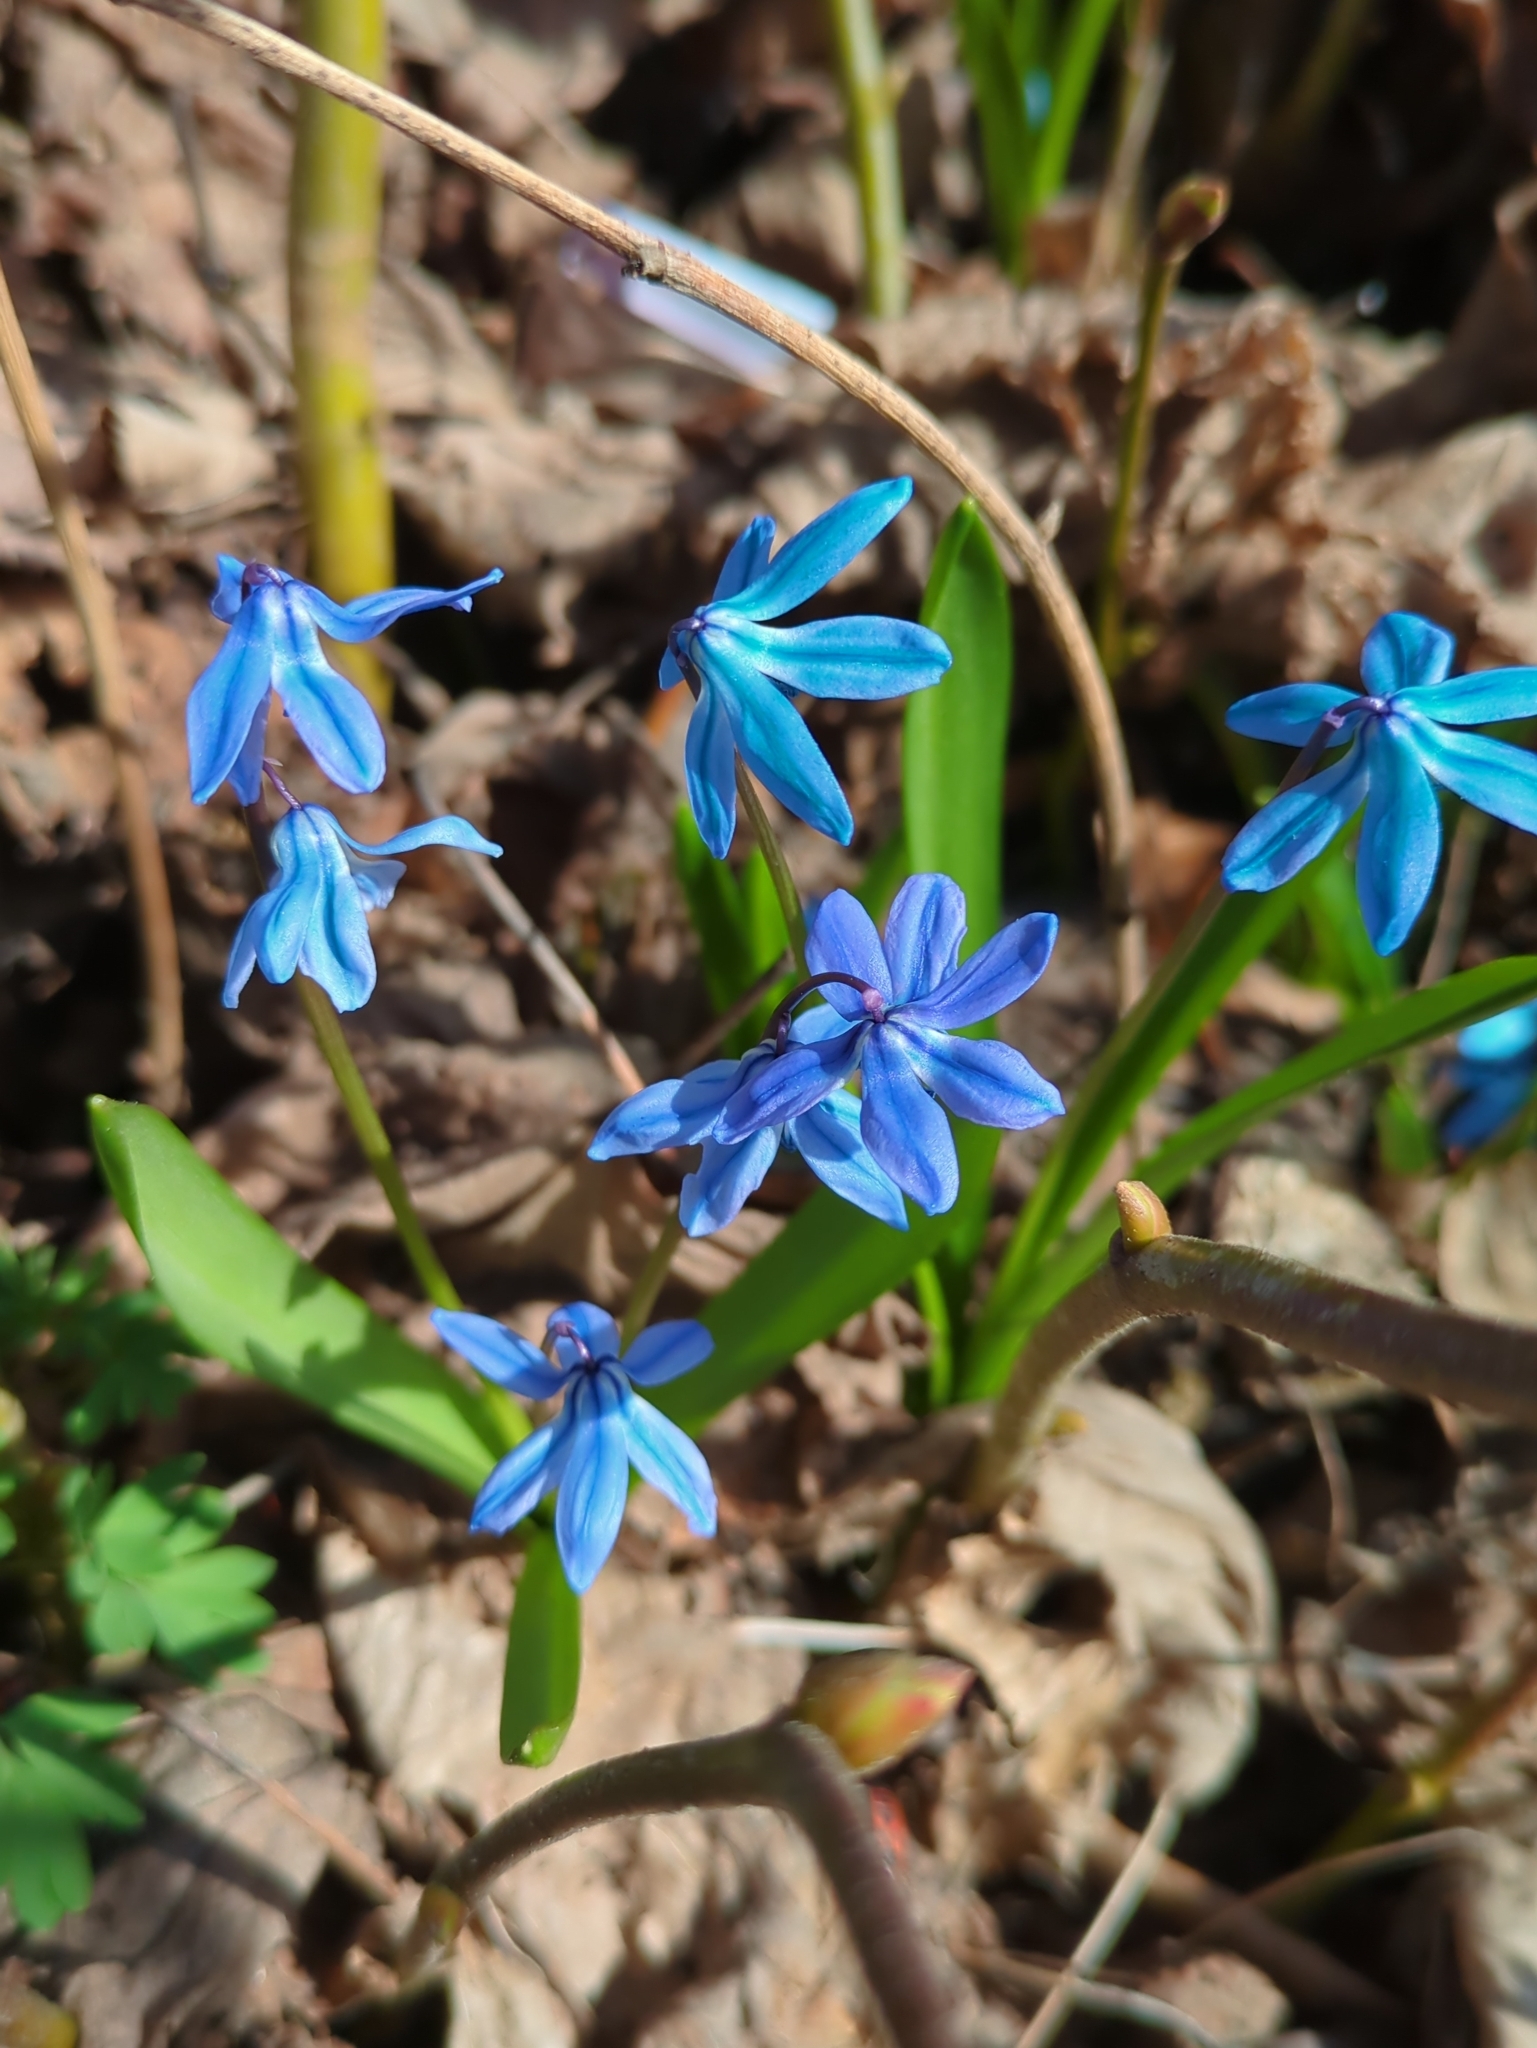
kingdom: Plantae
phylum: Tracheophyta
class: Liliopsida
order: Asparagales
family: Asparagaceae
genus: Scilla
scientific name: Scilla siberica
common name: Siberian squill
